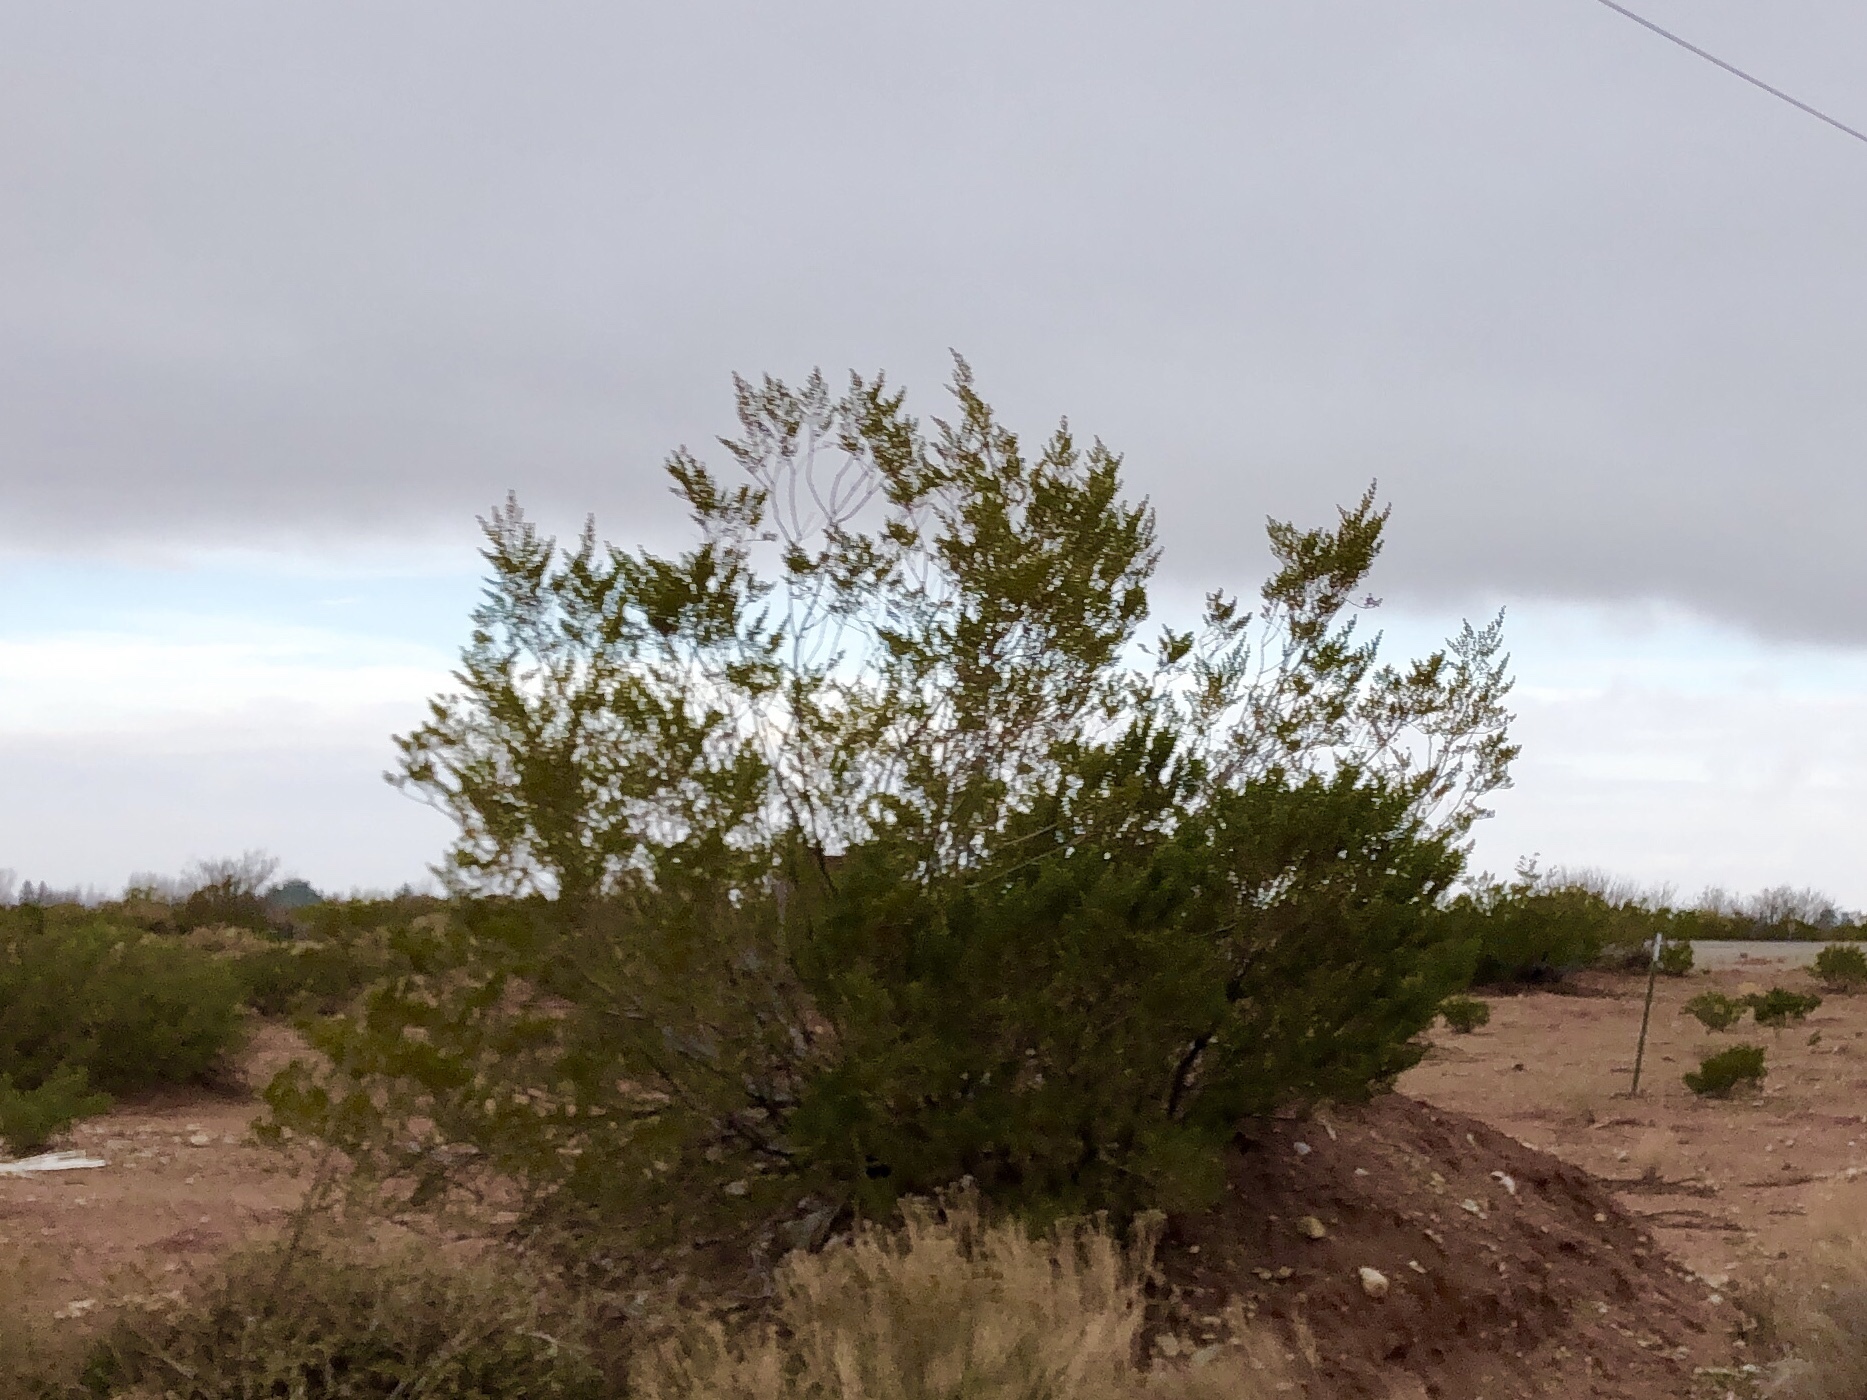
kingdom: Plantae
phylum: Tracheophyta
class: Magnoliopsida
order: Zygophyllales
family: Zygophyllaceae
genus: Larrea
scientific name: Larrea tridentata
